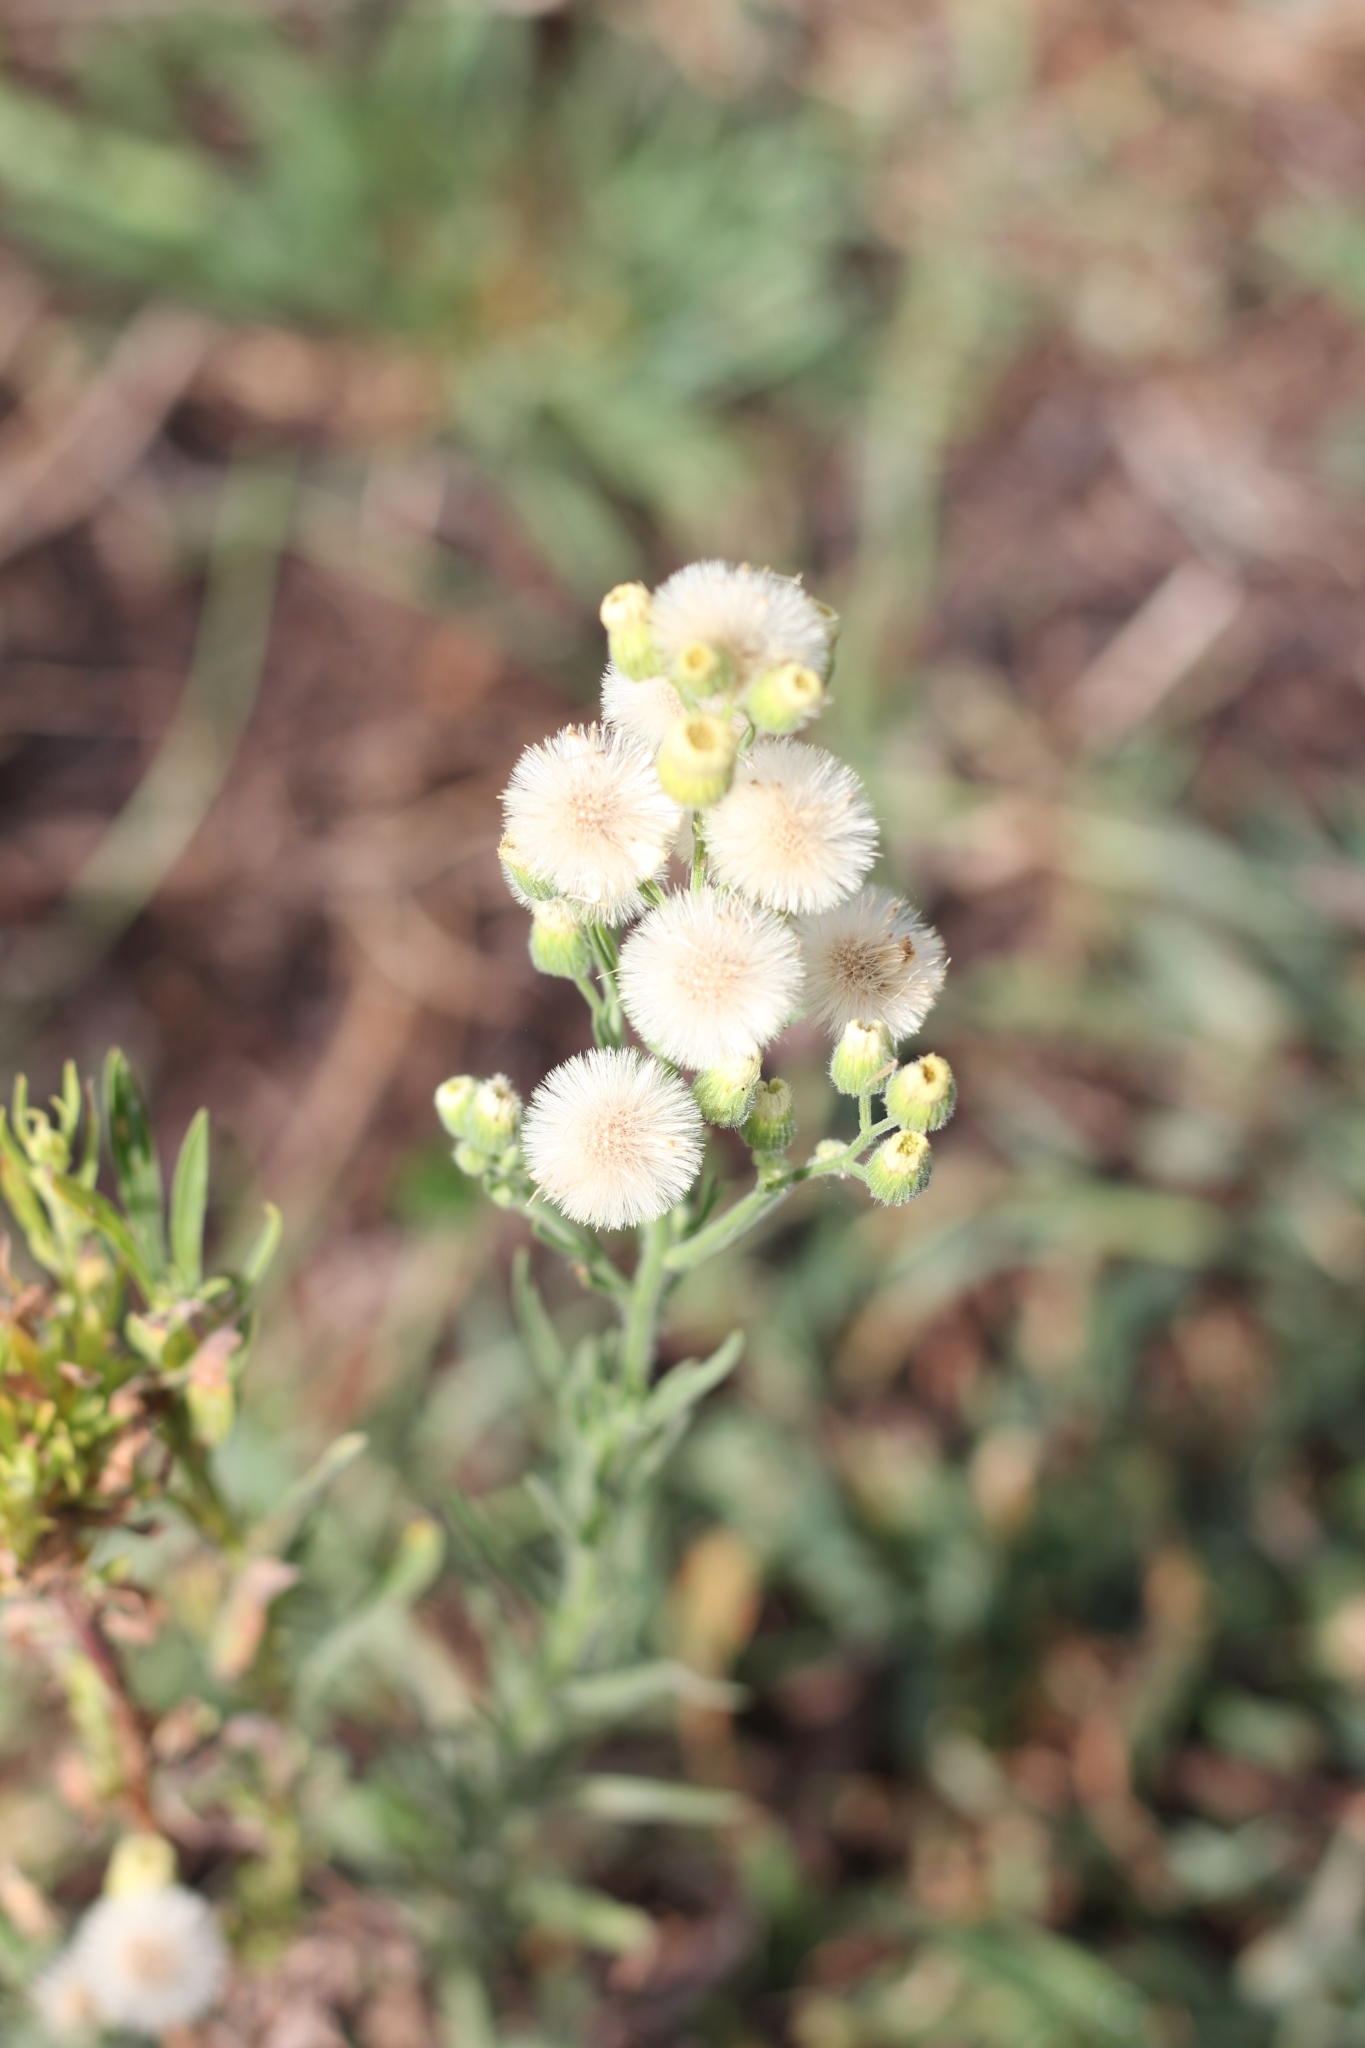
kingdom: Plantae
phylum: Tracheophyta
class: Magnoliopsida
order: Asterales
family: Asteraceae
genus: Erigeron
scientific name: Erigeron bonariensis
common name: Argentine fleabane
